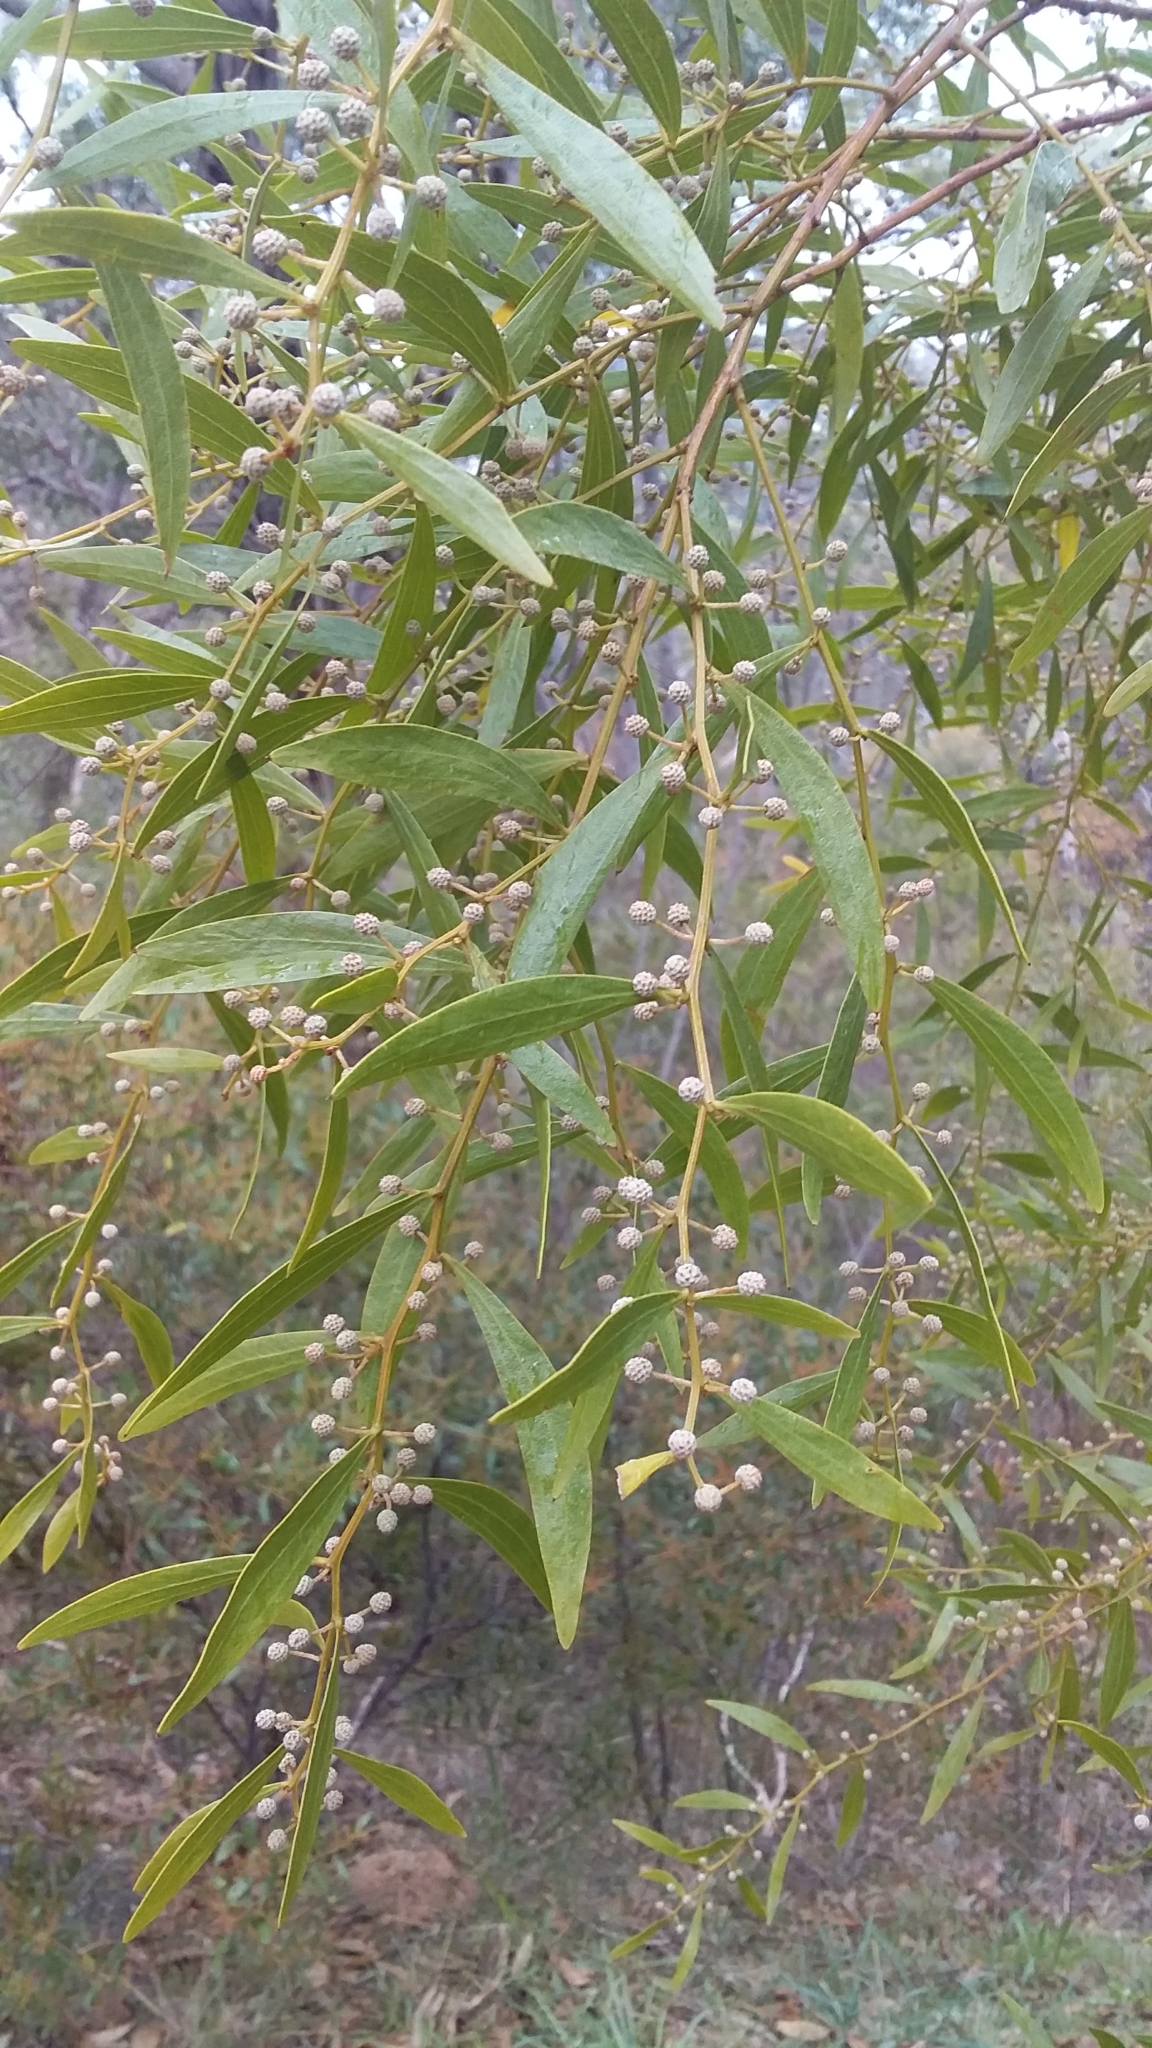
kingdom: Plantae
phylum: Tracheophyta
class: Magnoliopsida
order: Fabales
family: Fabaceae
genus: Acacia
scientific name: Acacia verniciflua
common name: Varnish wattle
